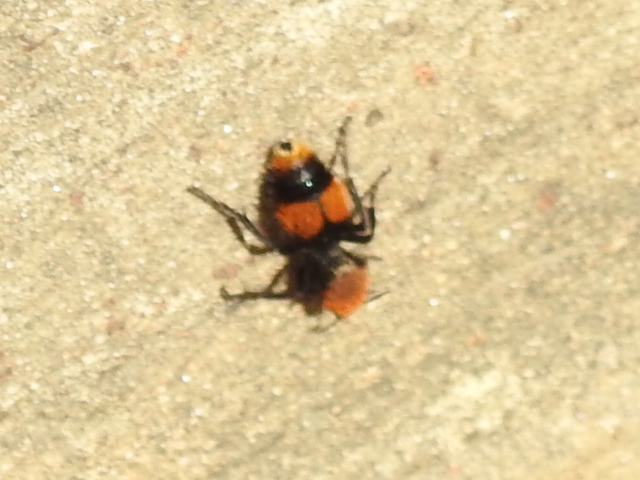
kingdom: Animalia
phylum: Arthropoda
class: Insecta
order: Hymenoptera
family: Mutillidae
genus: Dasymutilla
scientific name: Dasymutilla occidentalis
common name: Common eastern velvet ant
